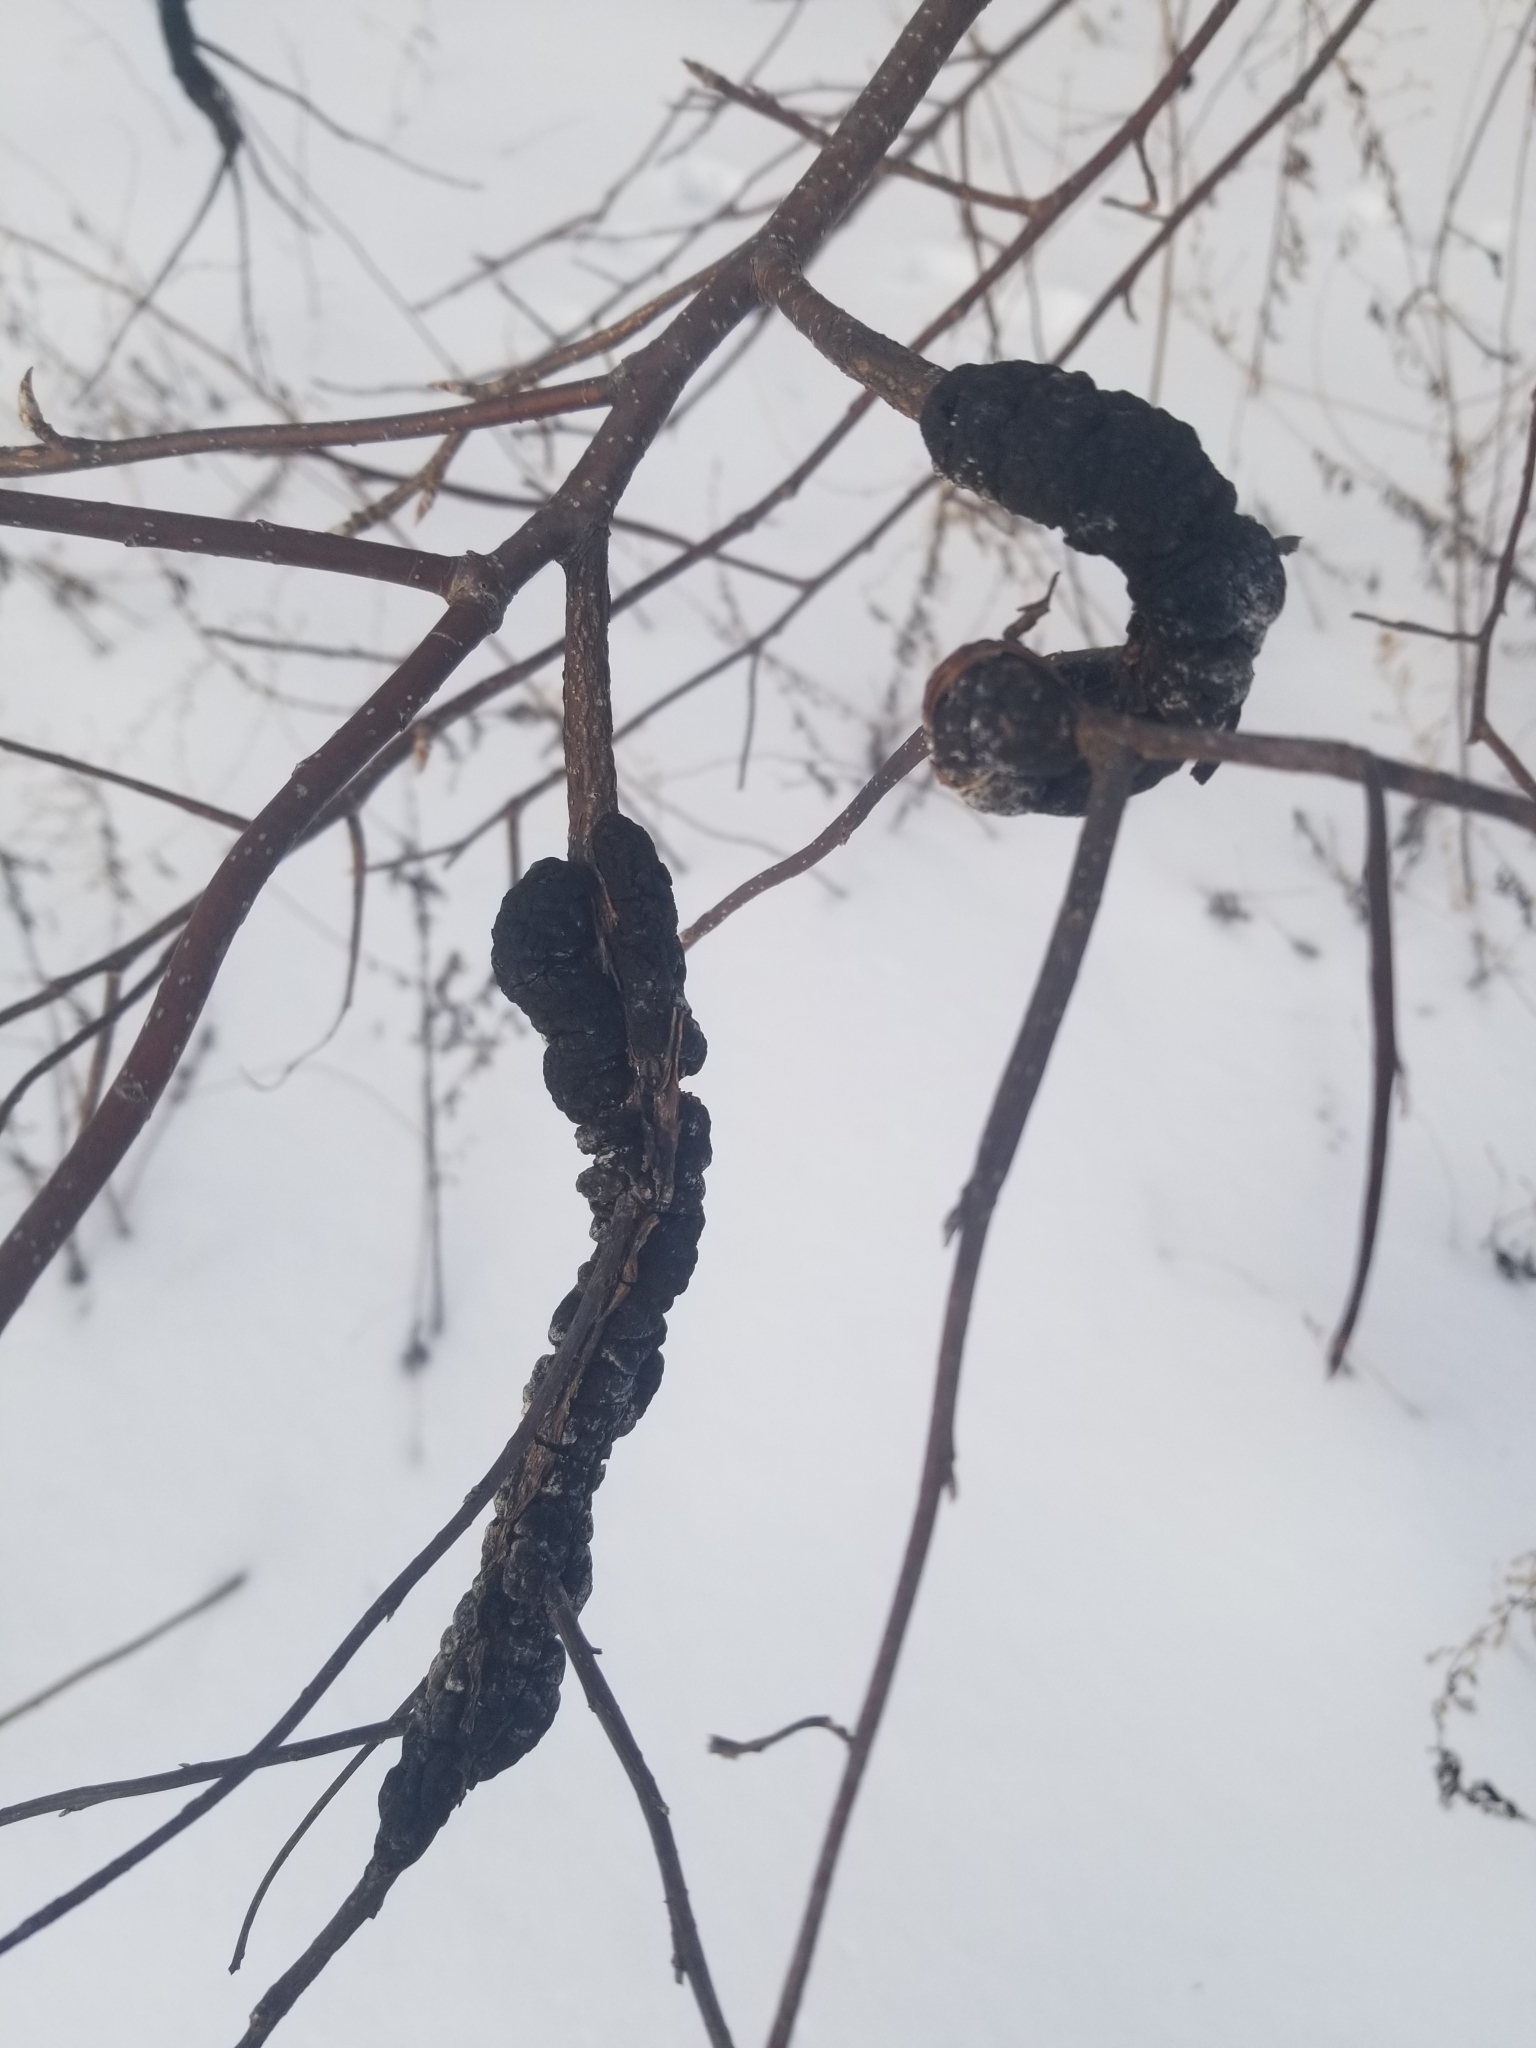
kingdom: Fungi
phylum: Ascomycota
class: Dothideomycetes
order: Venturiales
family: Venturiaceae
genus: Apiosporina
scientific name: Apiosporina morbosa
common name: Black knot
